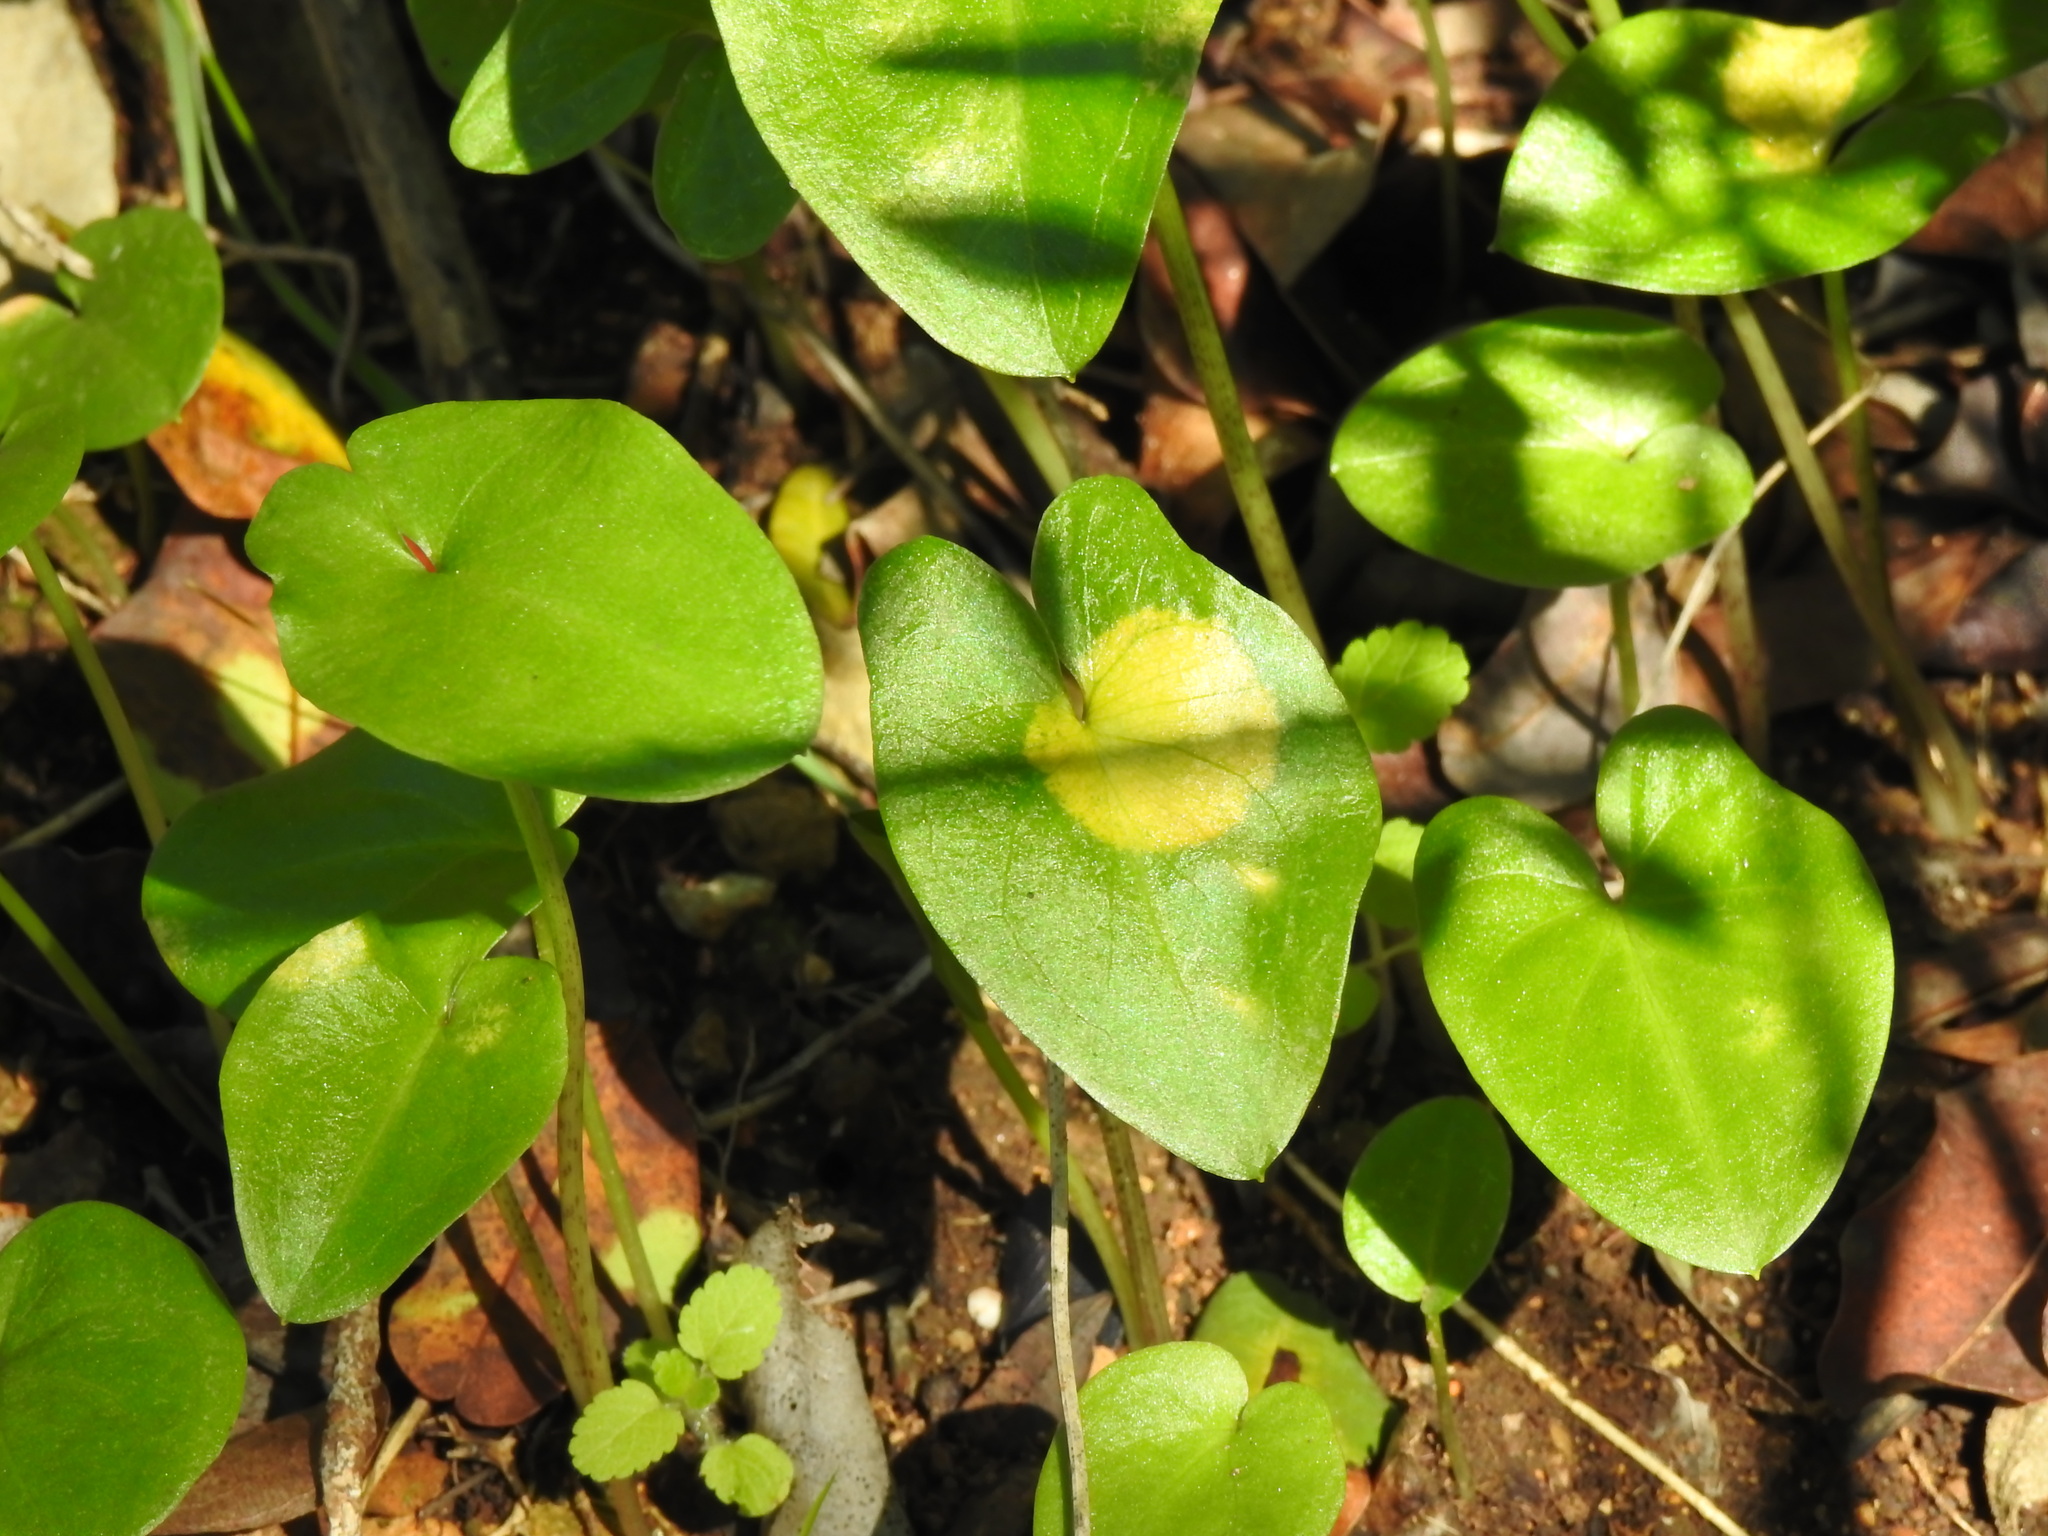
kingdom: Chromista
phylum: Ochrophyta
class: Xanthophyceae
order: Phyllosiphonales
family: Phyllosiphonaceae
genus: Phyllosiphon
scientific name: Phyllosiphon arisari
